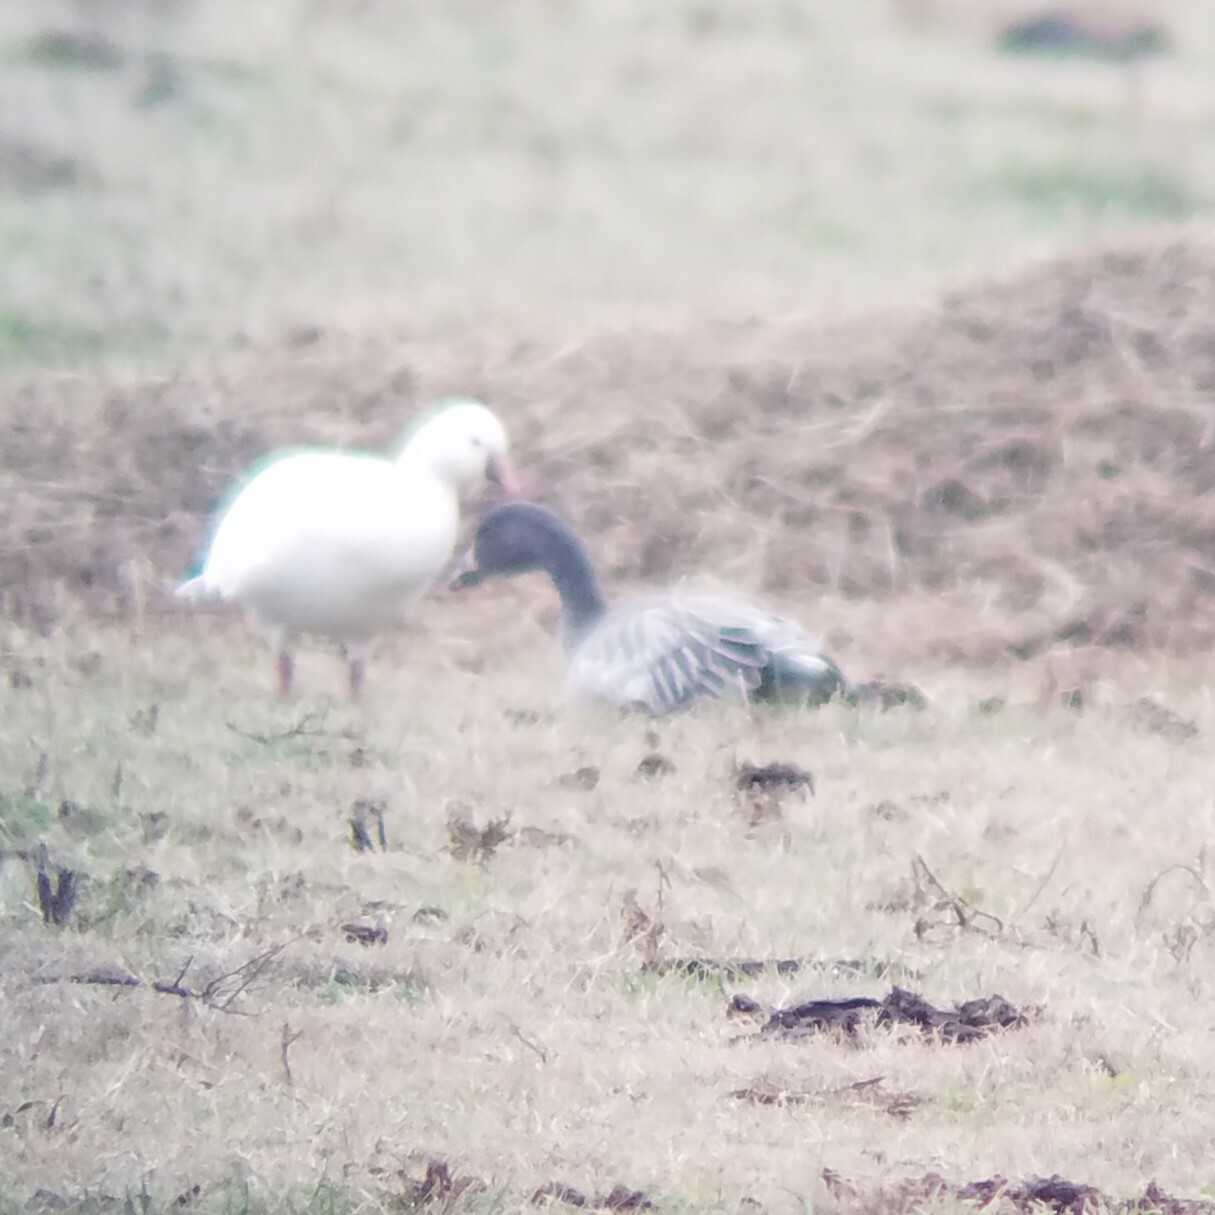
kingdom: Animalia
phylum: Chordata
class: Aves
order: Anseriformes
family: Anatidae
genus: Anser
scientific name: Anser caerulescens
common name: Snow goose
